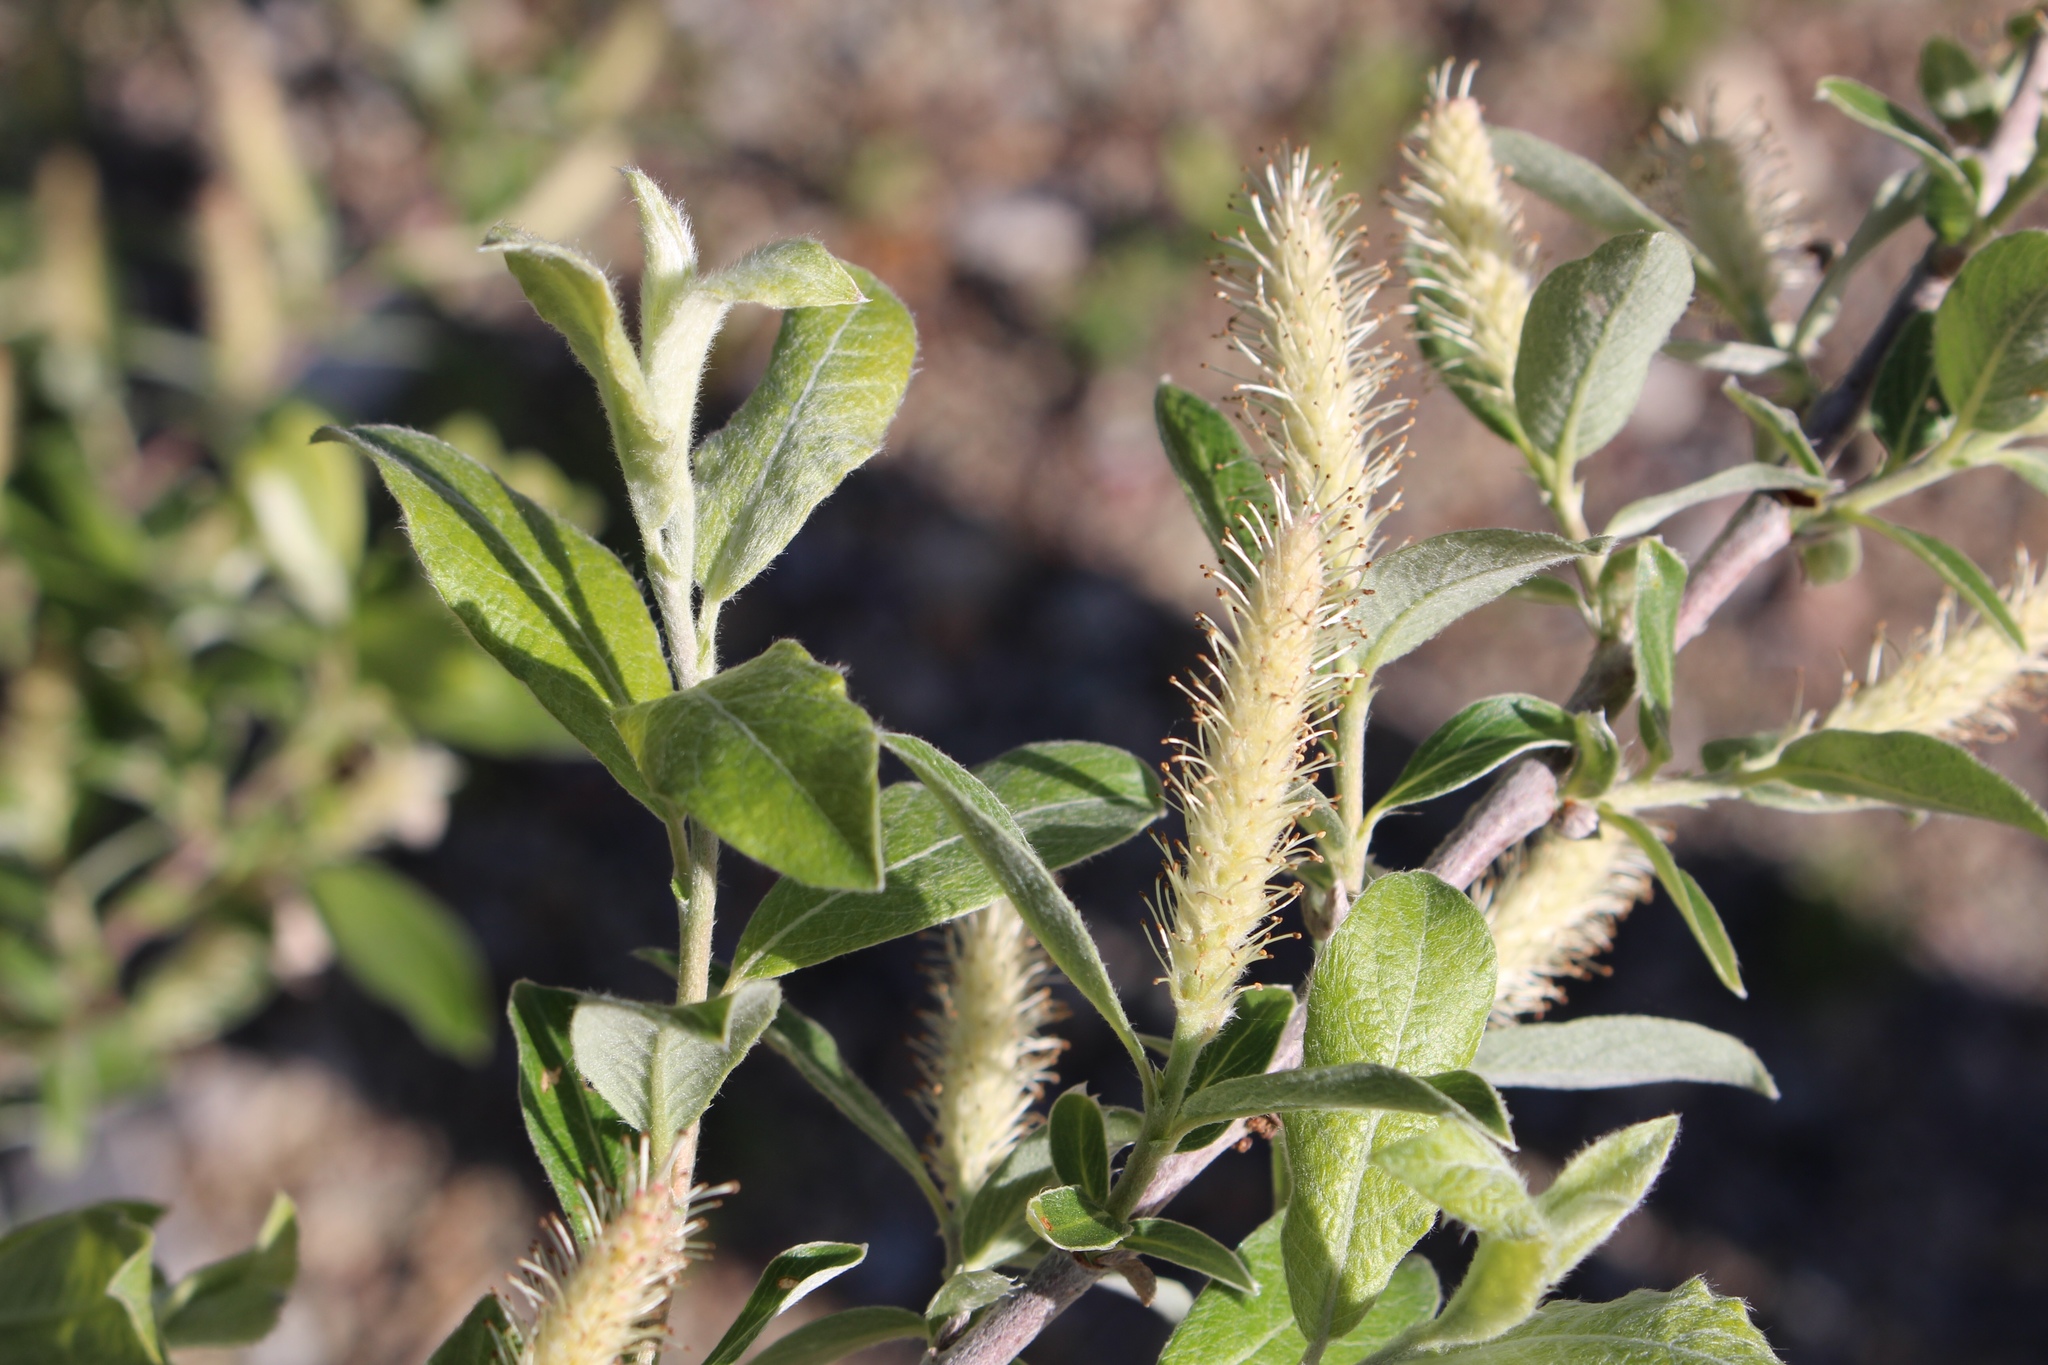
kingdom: Plantae
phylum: Tracheophyta
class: Magnoliopsida
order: Malpighiales
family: Salicaceae
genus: Salix
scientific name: Salix glauca
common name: Glaucous willow
